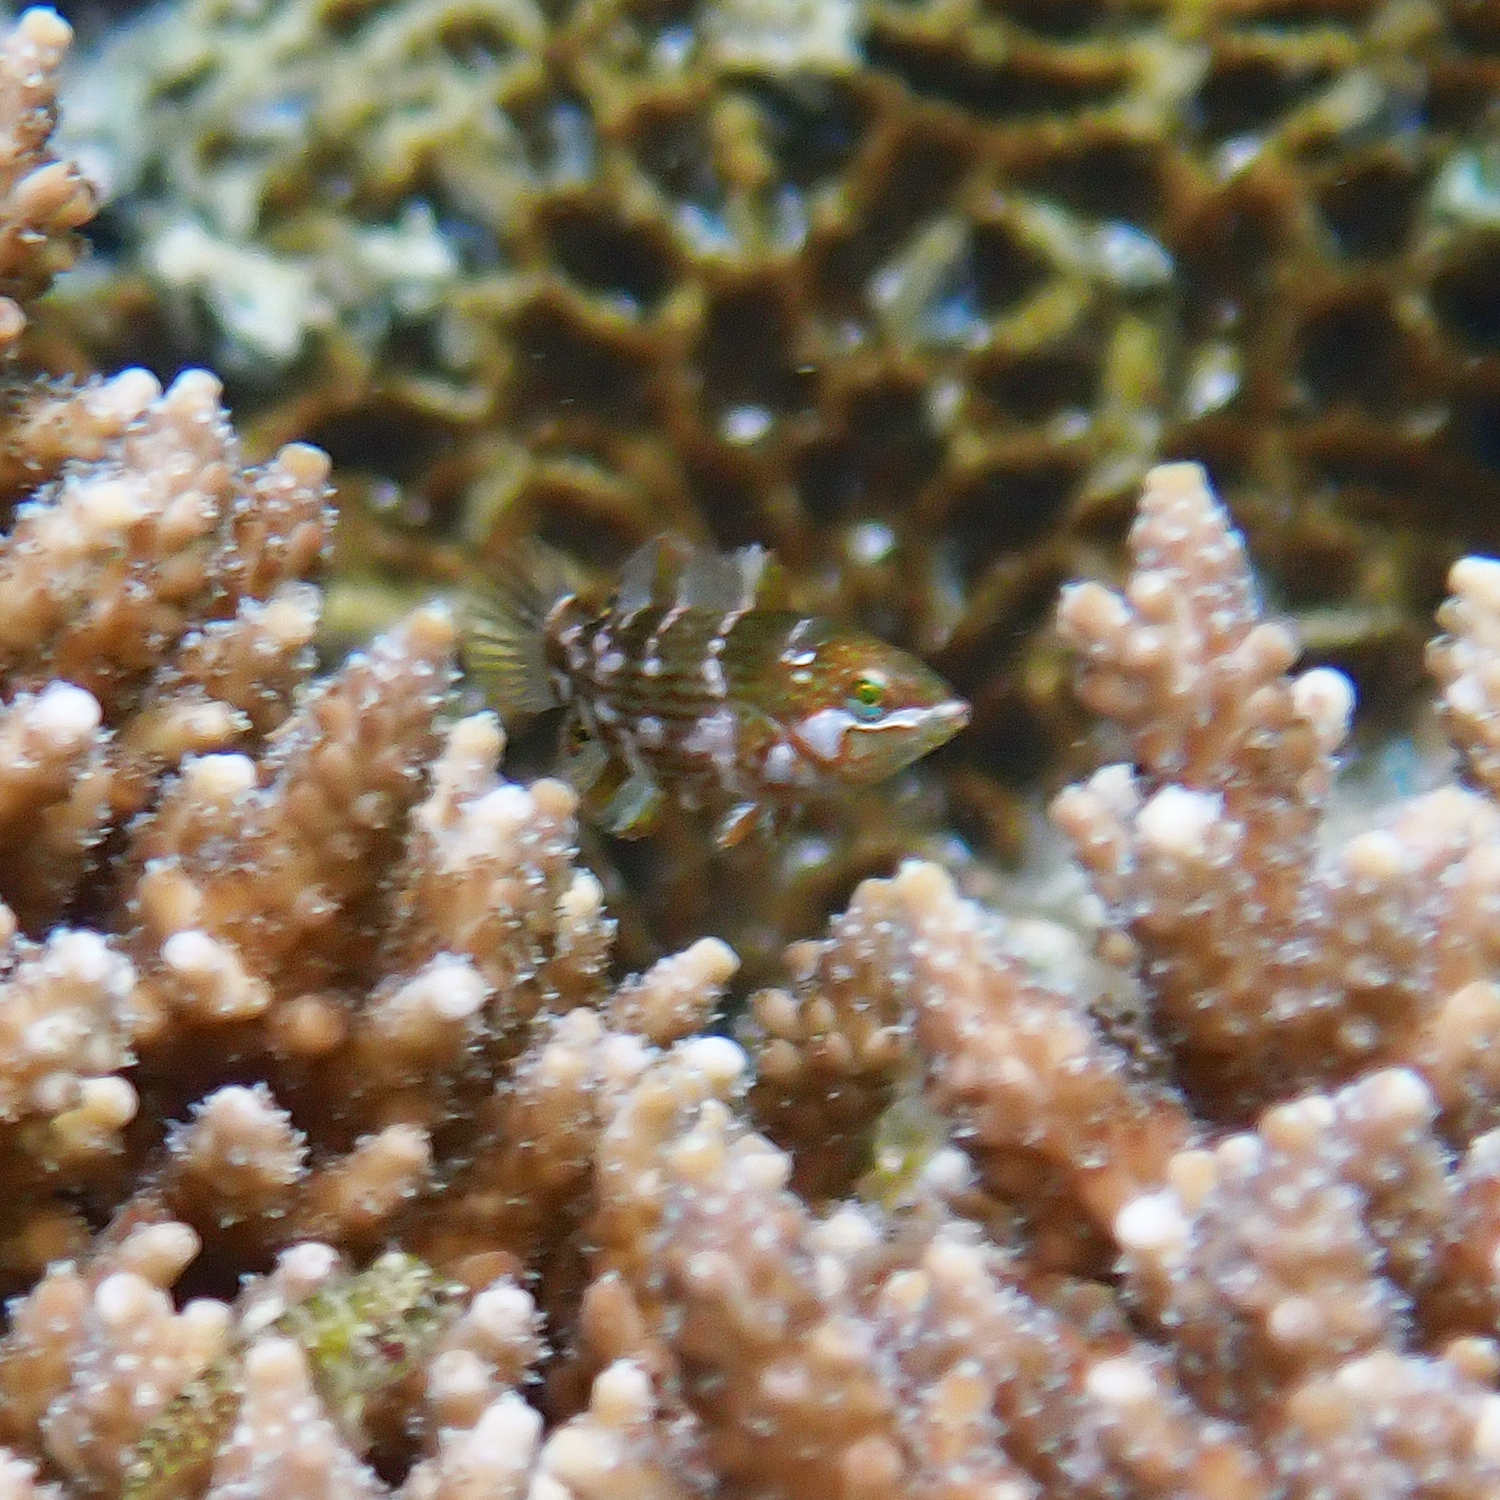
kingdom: Animalia
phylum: Chordata
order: Perciformes
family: Labridae
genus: Anampses
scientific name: Anampses elegans
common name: Elegant wrasse
